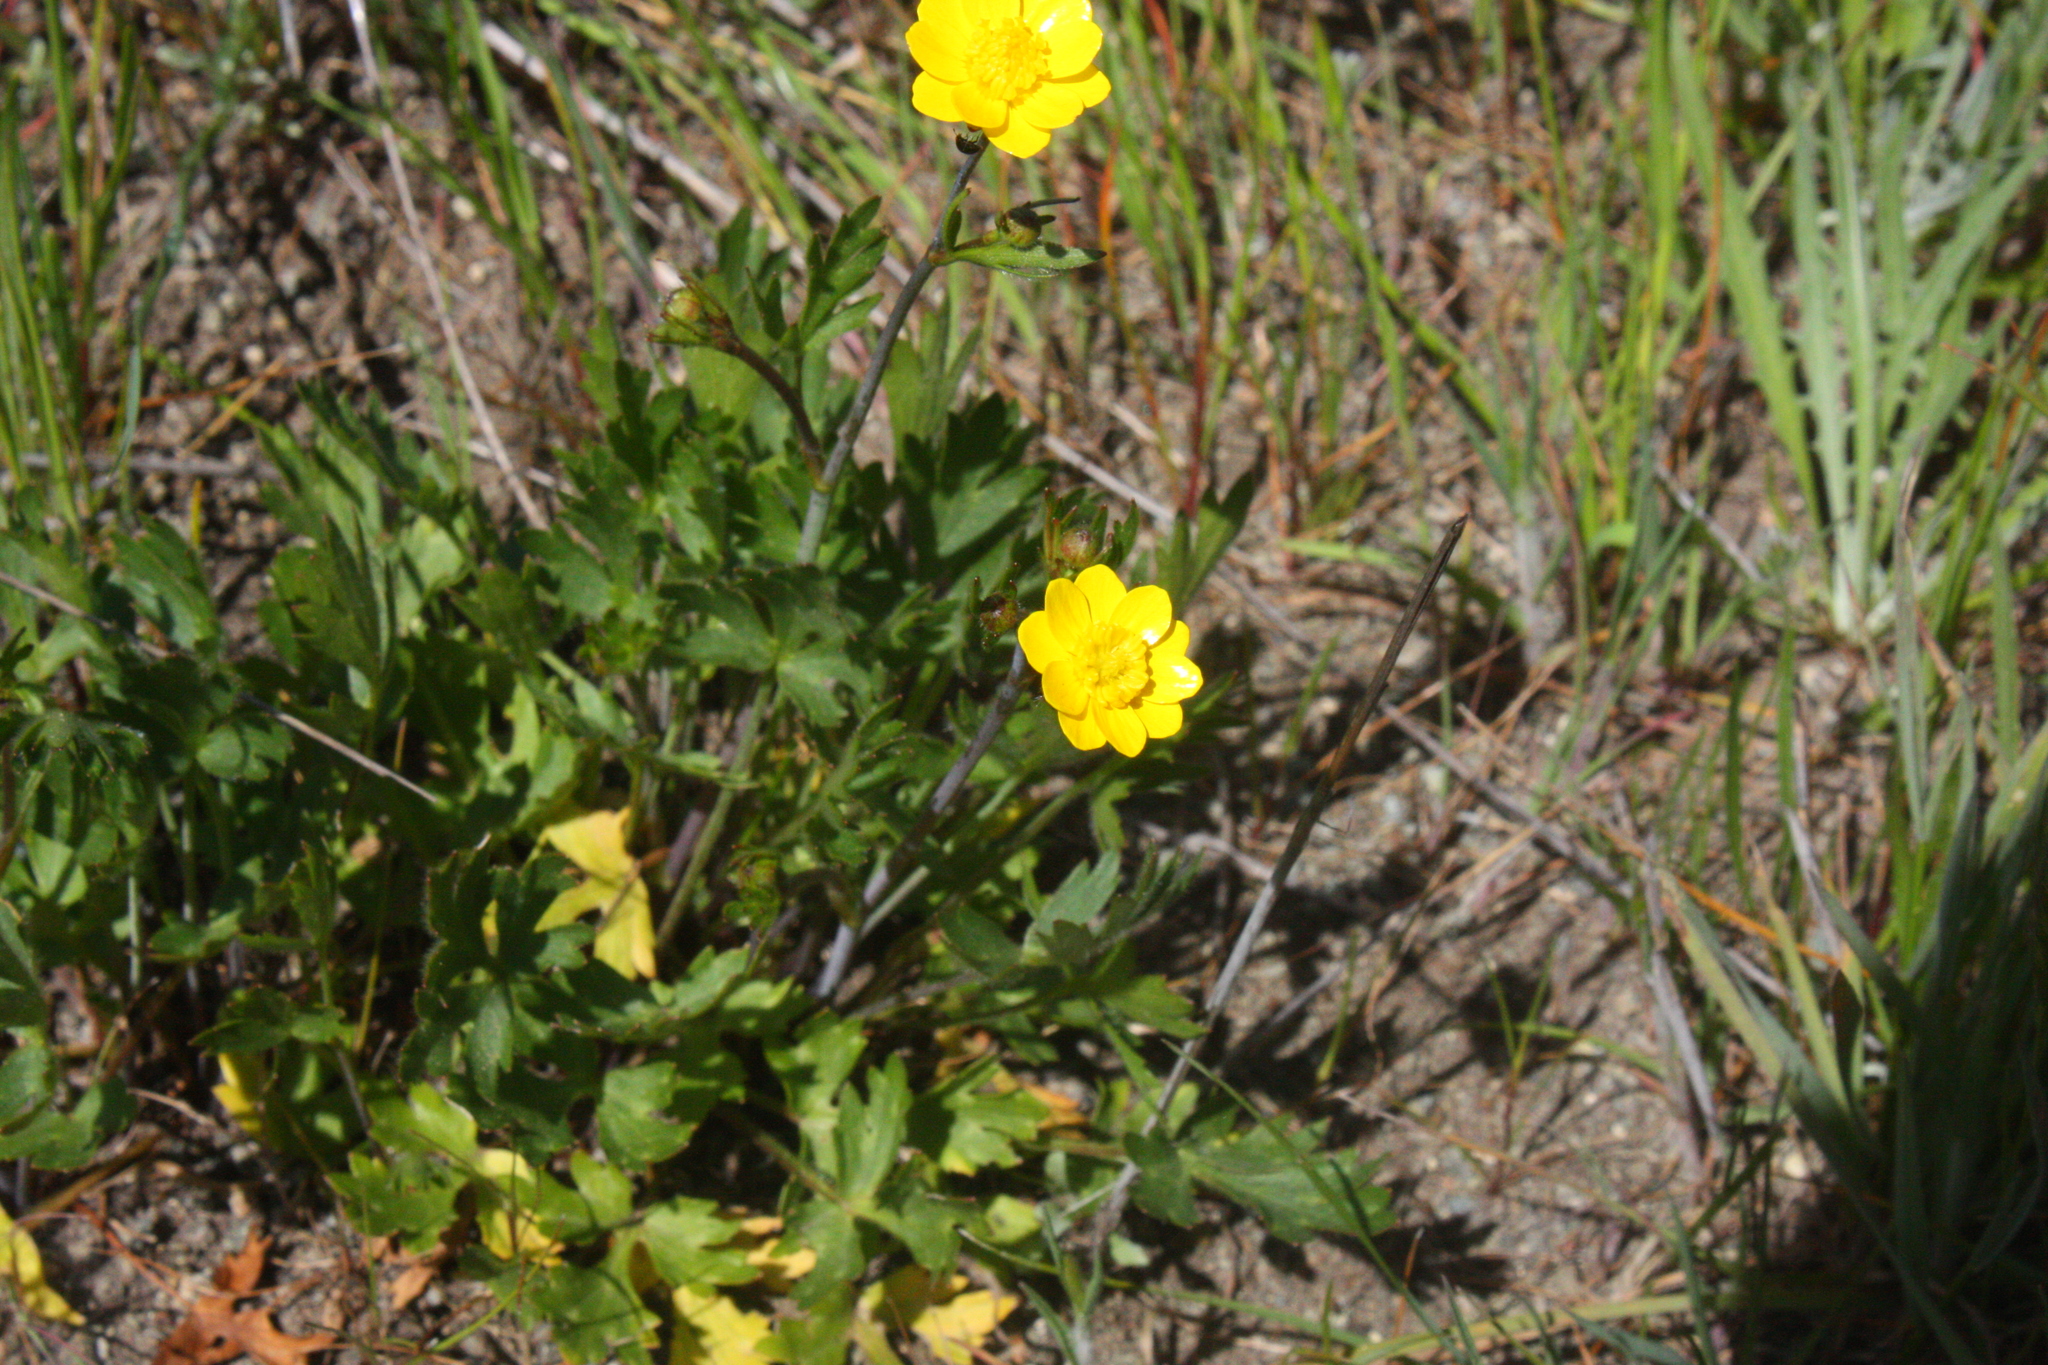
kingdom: Plantae
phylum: Tracheophyta
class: Magnoliopsida
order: Ranunculales
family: Ranunculaceae
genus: Ranunculus
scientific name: Ranunculus californicus
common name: California buttercup
